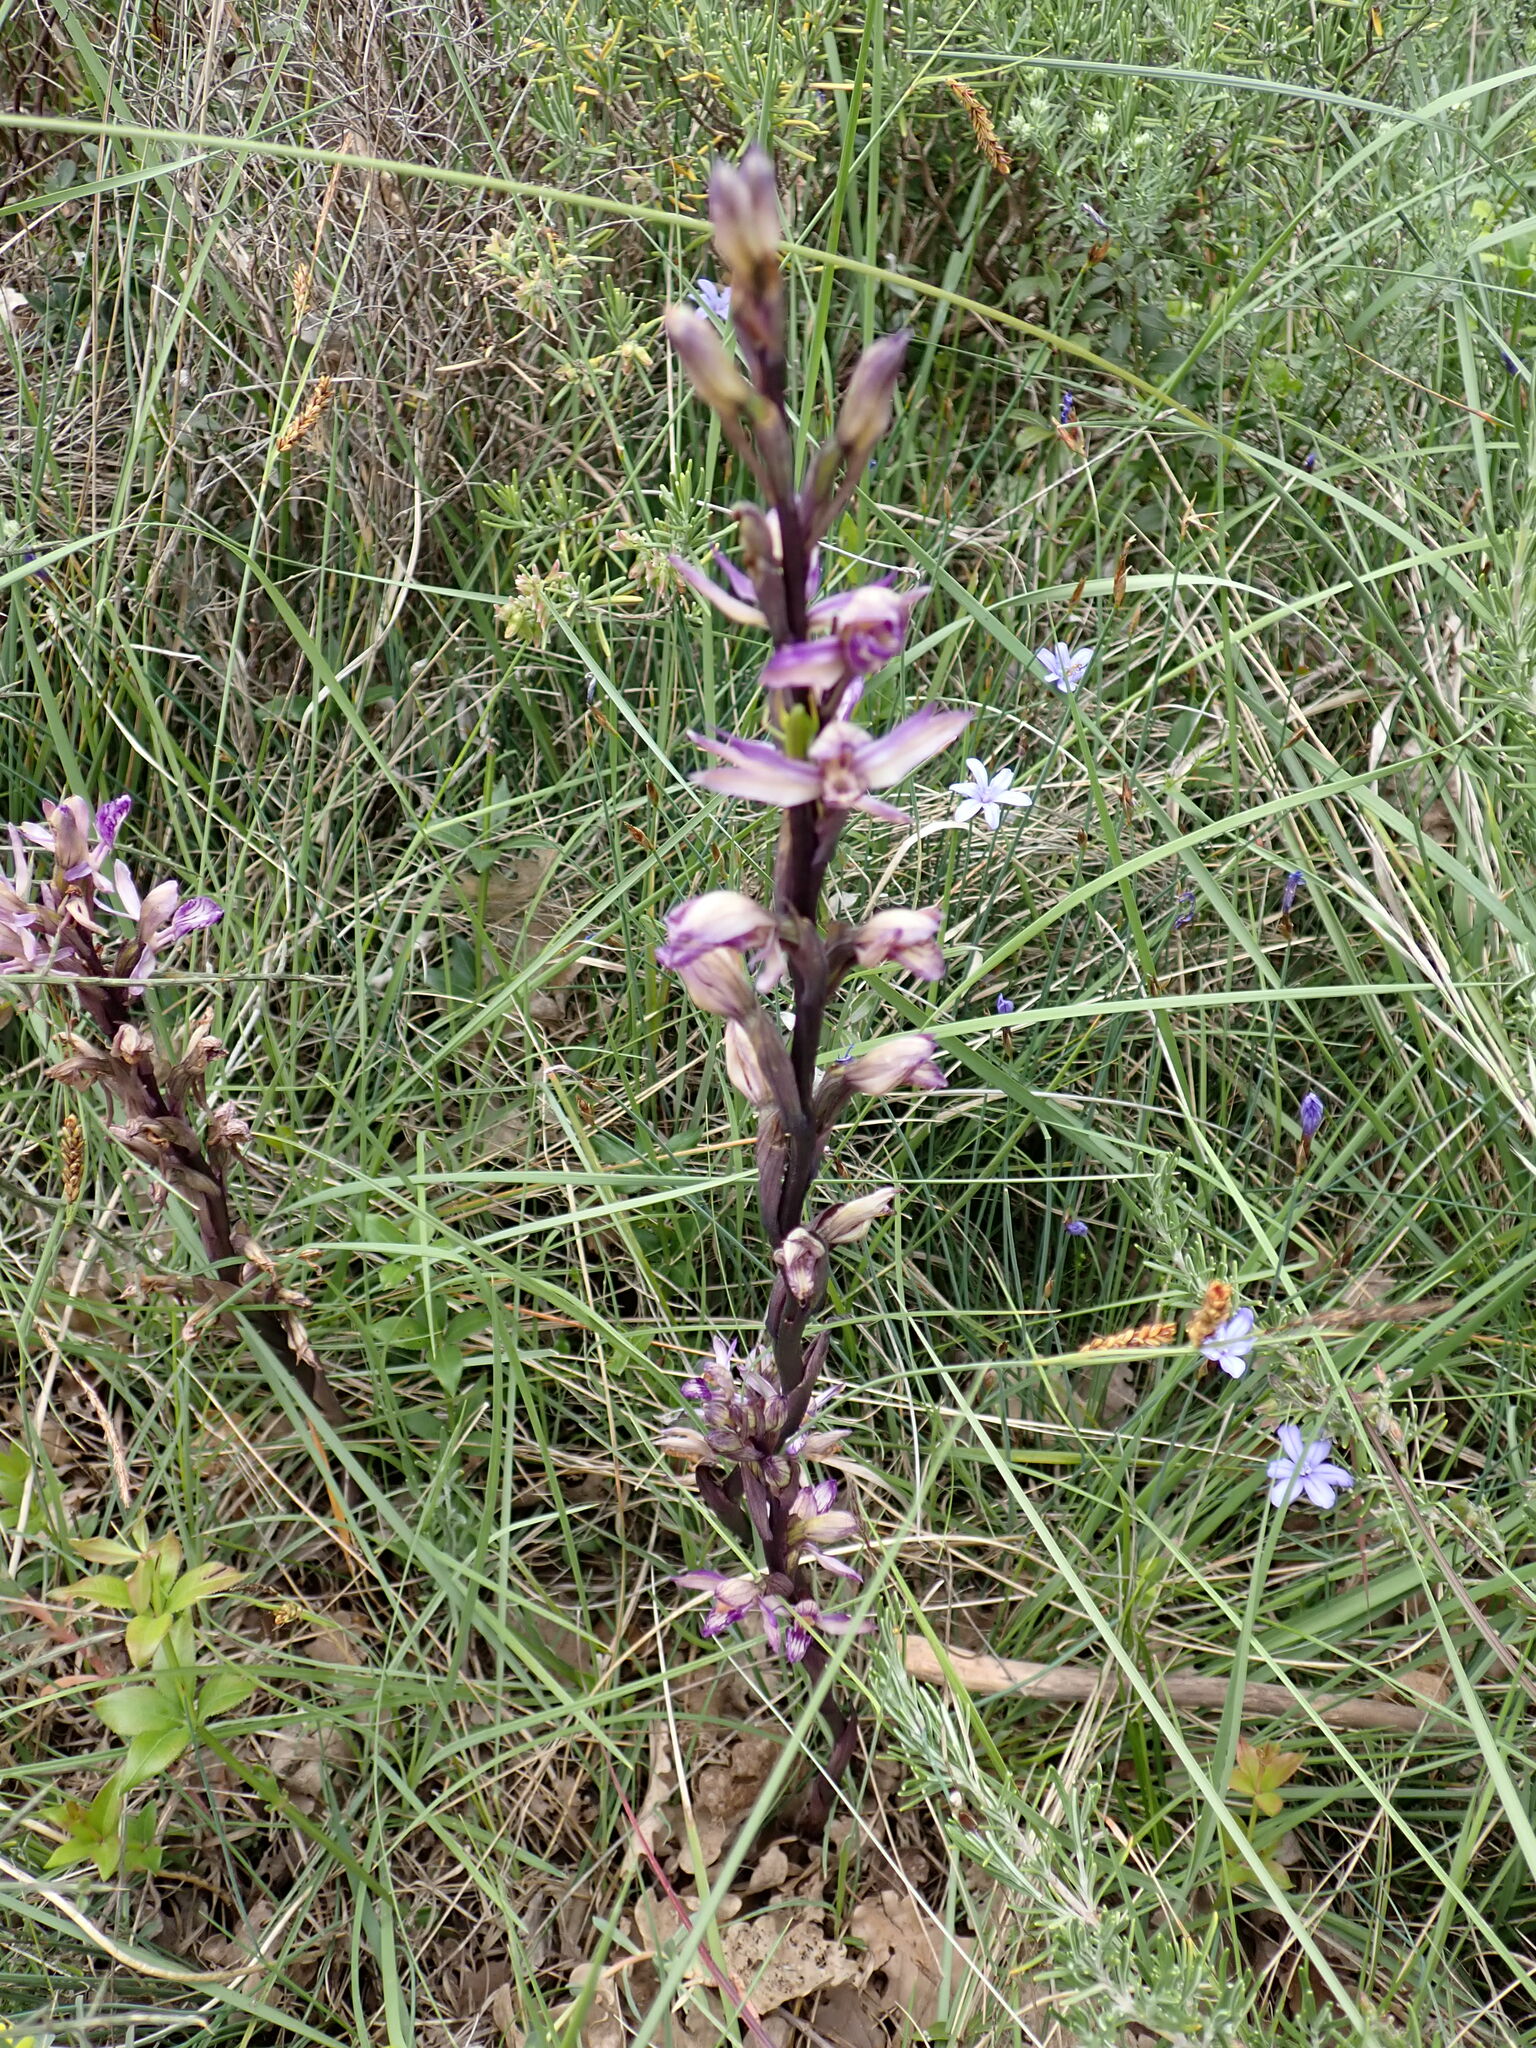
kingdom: Plantae
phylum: Tracheophyta
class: Liliopsida
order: Asparagales
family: Orchidaceae
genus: Limodorum
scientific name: Limodorum abortivum
